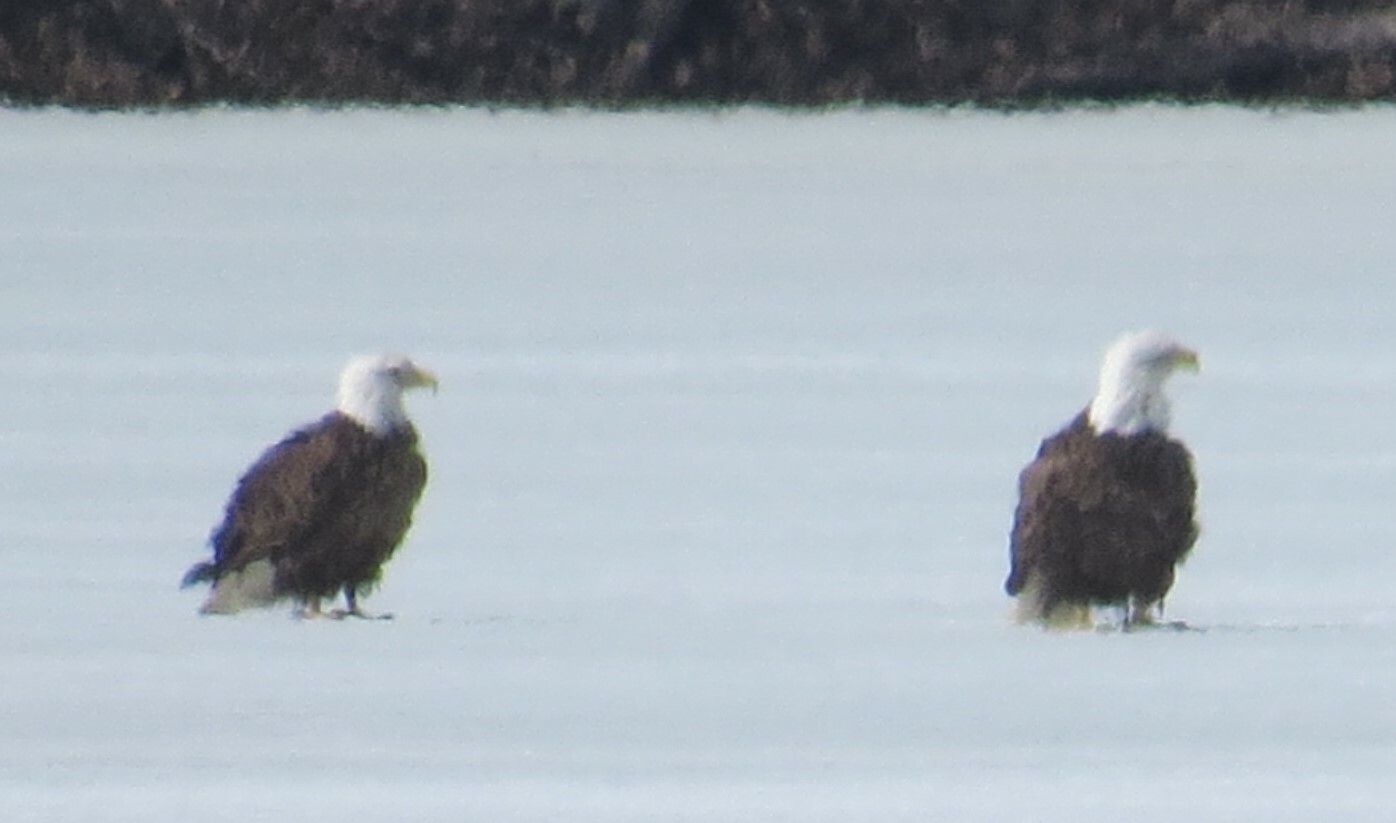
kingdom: Animalia
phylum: Chordata
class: Aves
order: Accipitriformes
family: Accipitridae
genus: Haliaeetus
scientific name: Haliaeetus leucocephalus
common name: Bald eagle
